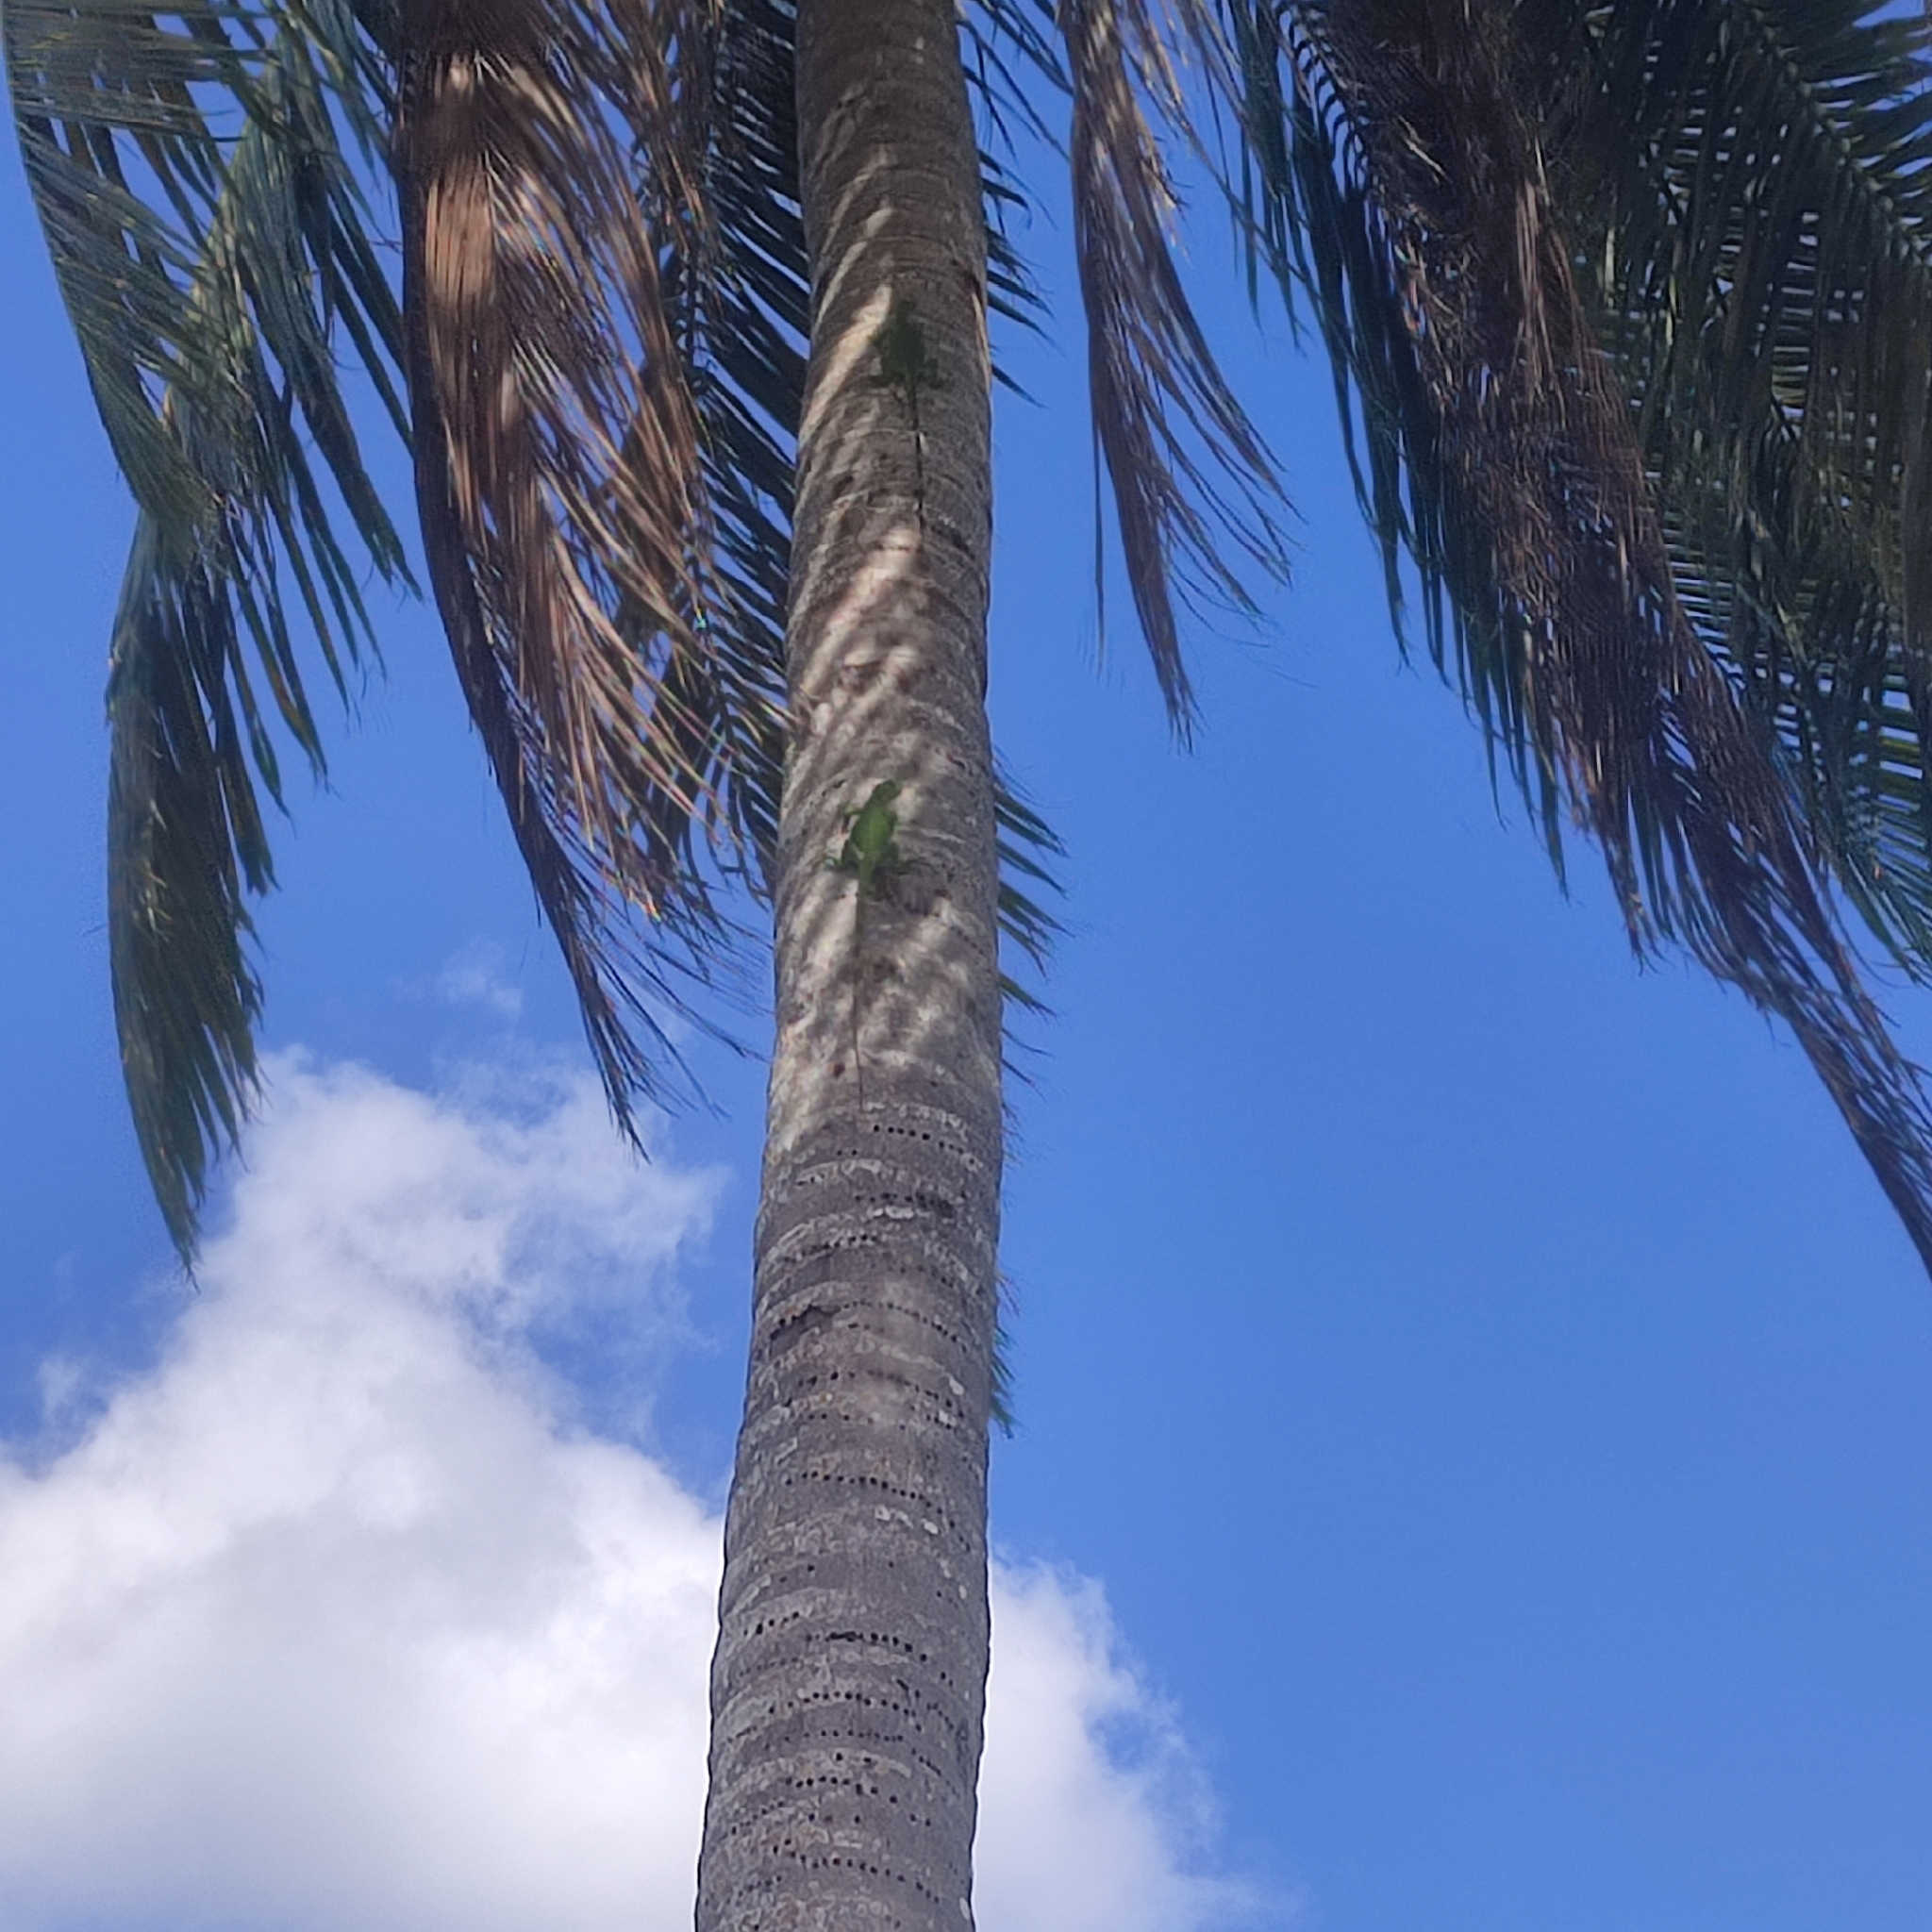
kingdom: Animalia
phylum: Chordata
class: Squamata
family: Iguanidae
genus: Iguana
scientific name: Iguana iguana
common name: Green iguana
